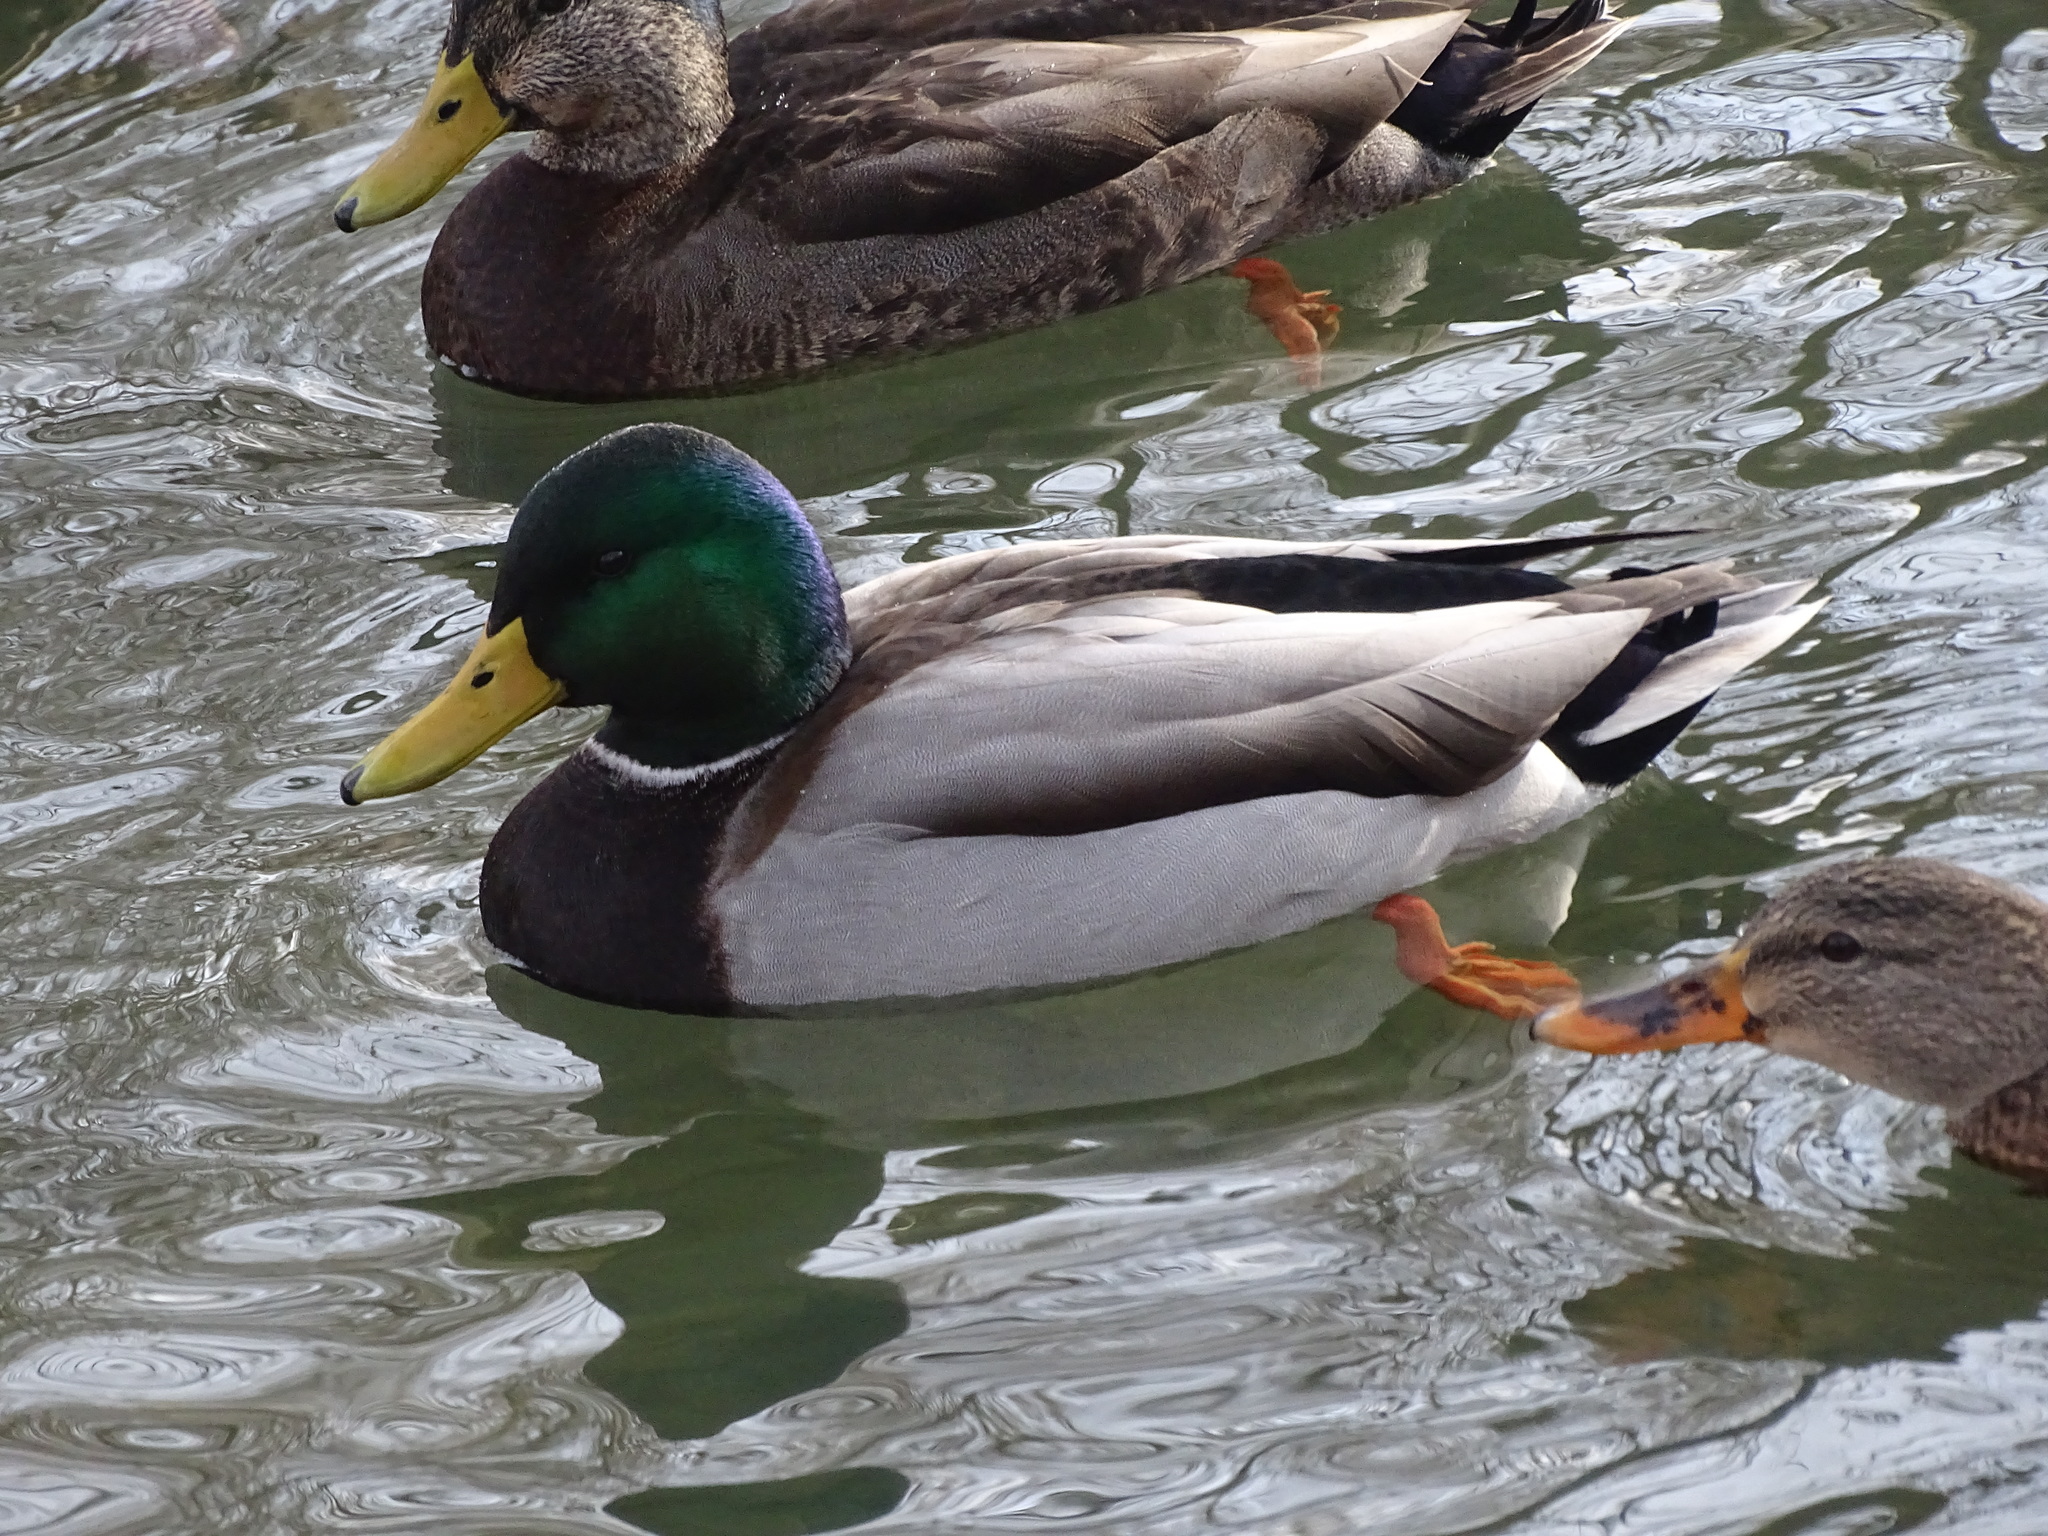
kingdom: Animalia
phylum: Chordata
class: Aves
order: Anseriformes
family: Anatidae
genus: Anas
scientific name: Anas platyrhynchos
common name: Mallard
